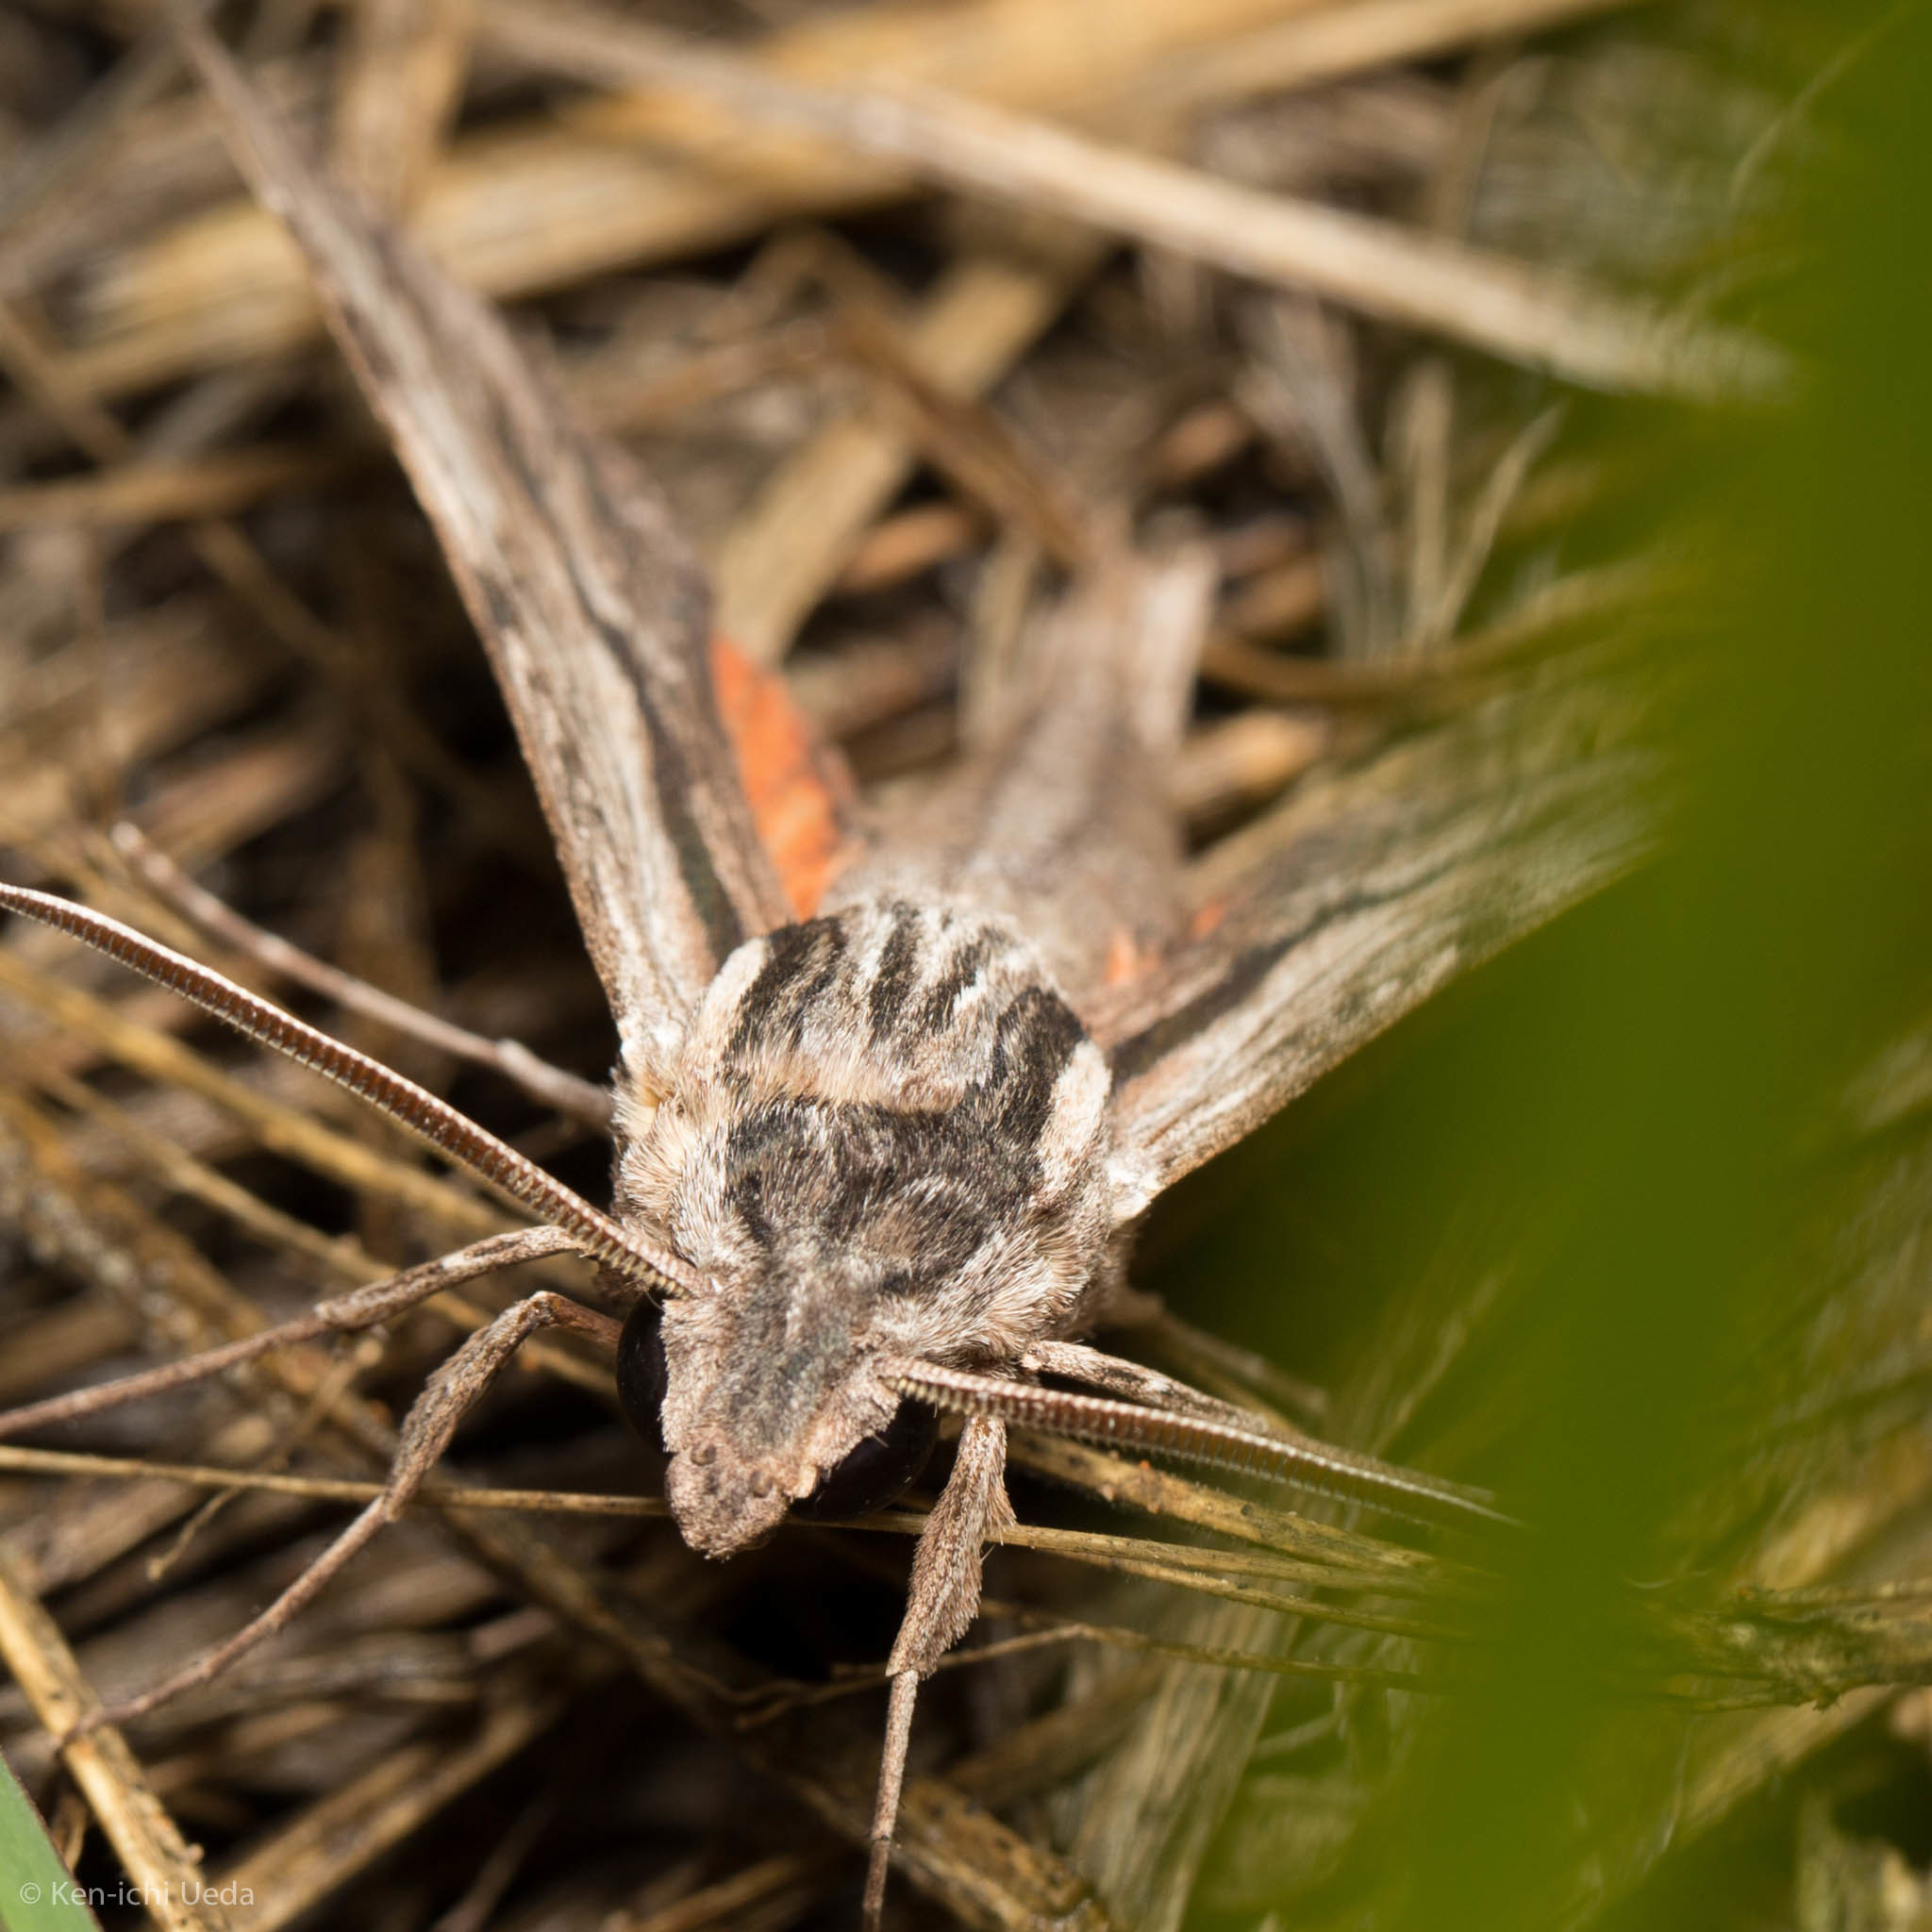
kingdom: Animalia
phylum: Arthropoda
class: Insecta
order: Lepidoptera
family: Sphingidae
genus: Erinnyis
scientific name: Erinnyis obscura
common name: Obscure sphinx
